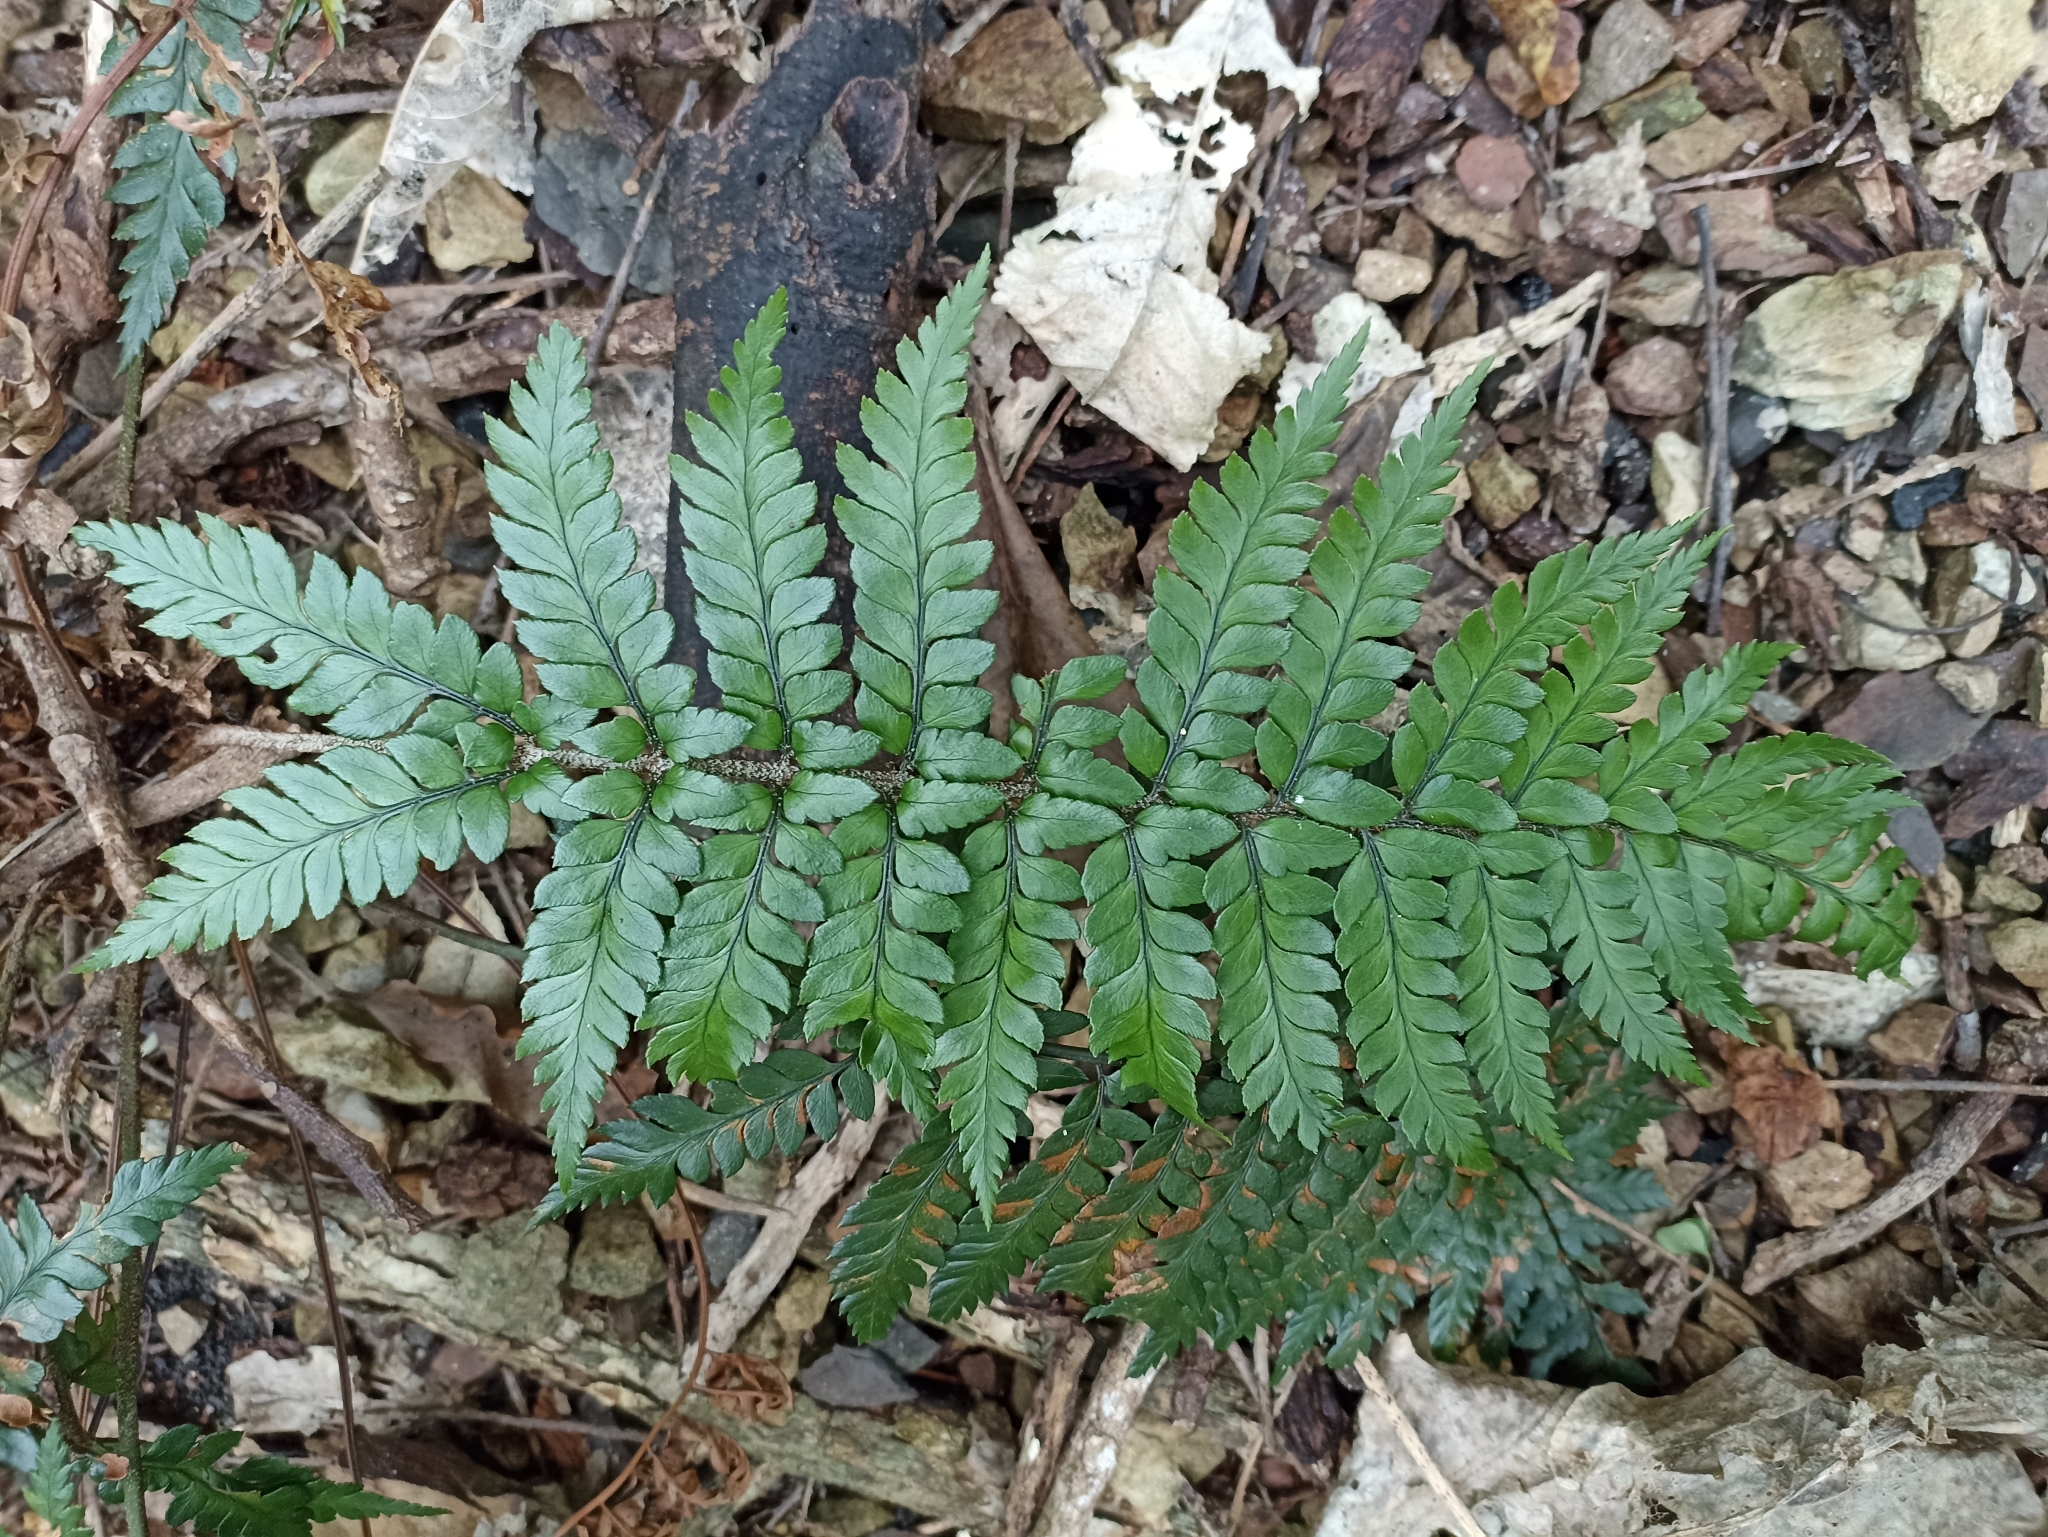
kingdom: Plantae
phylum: Tracheophyta
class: Polypodiopsida
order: Polypodiales
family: Dryopteridaceae
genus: Polystichum
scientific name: Polystichum wawranum
